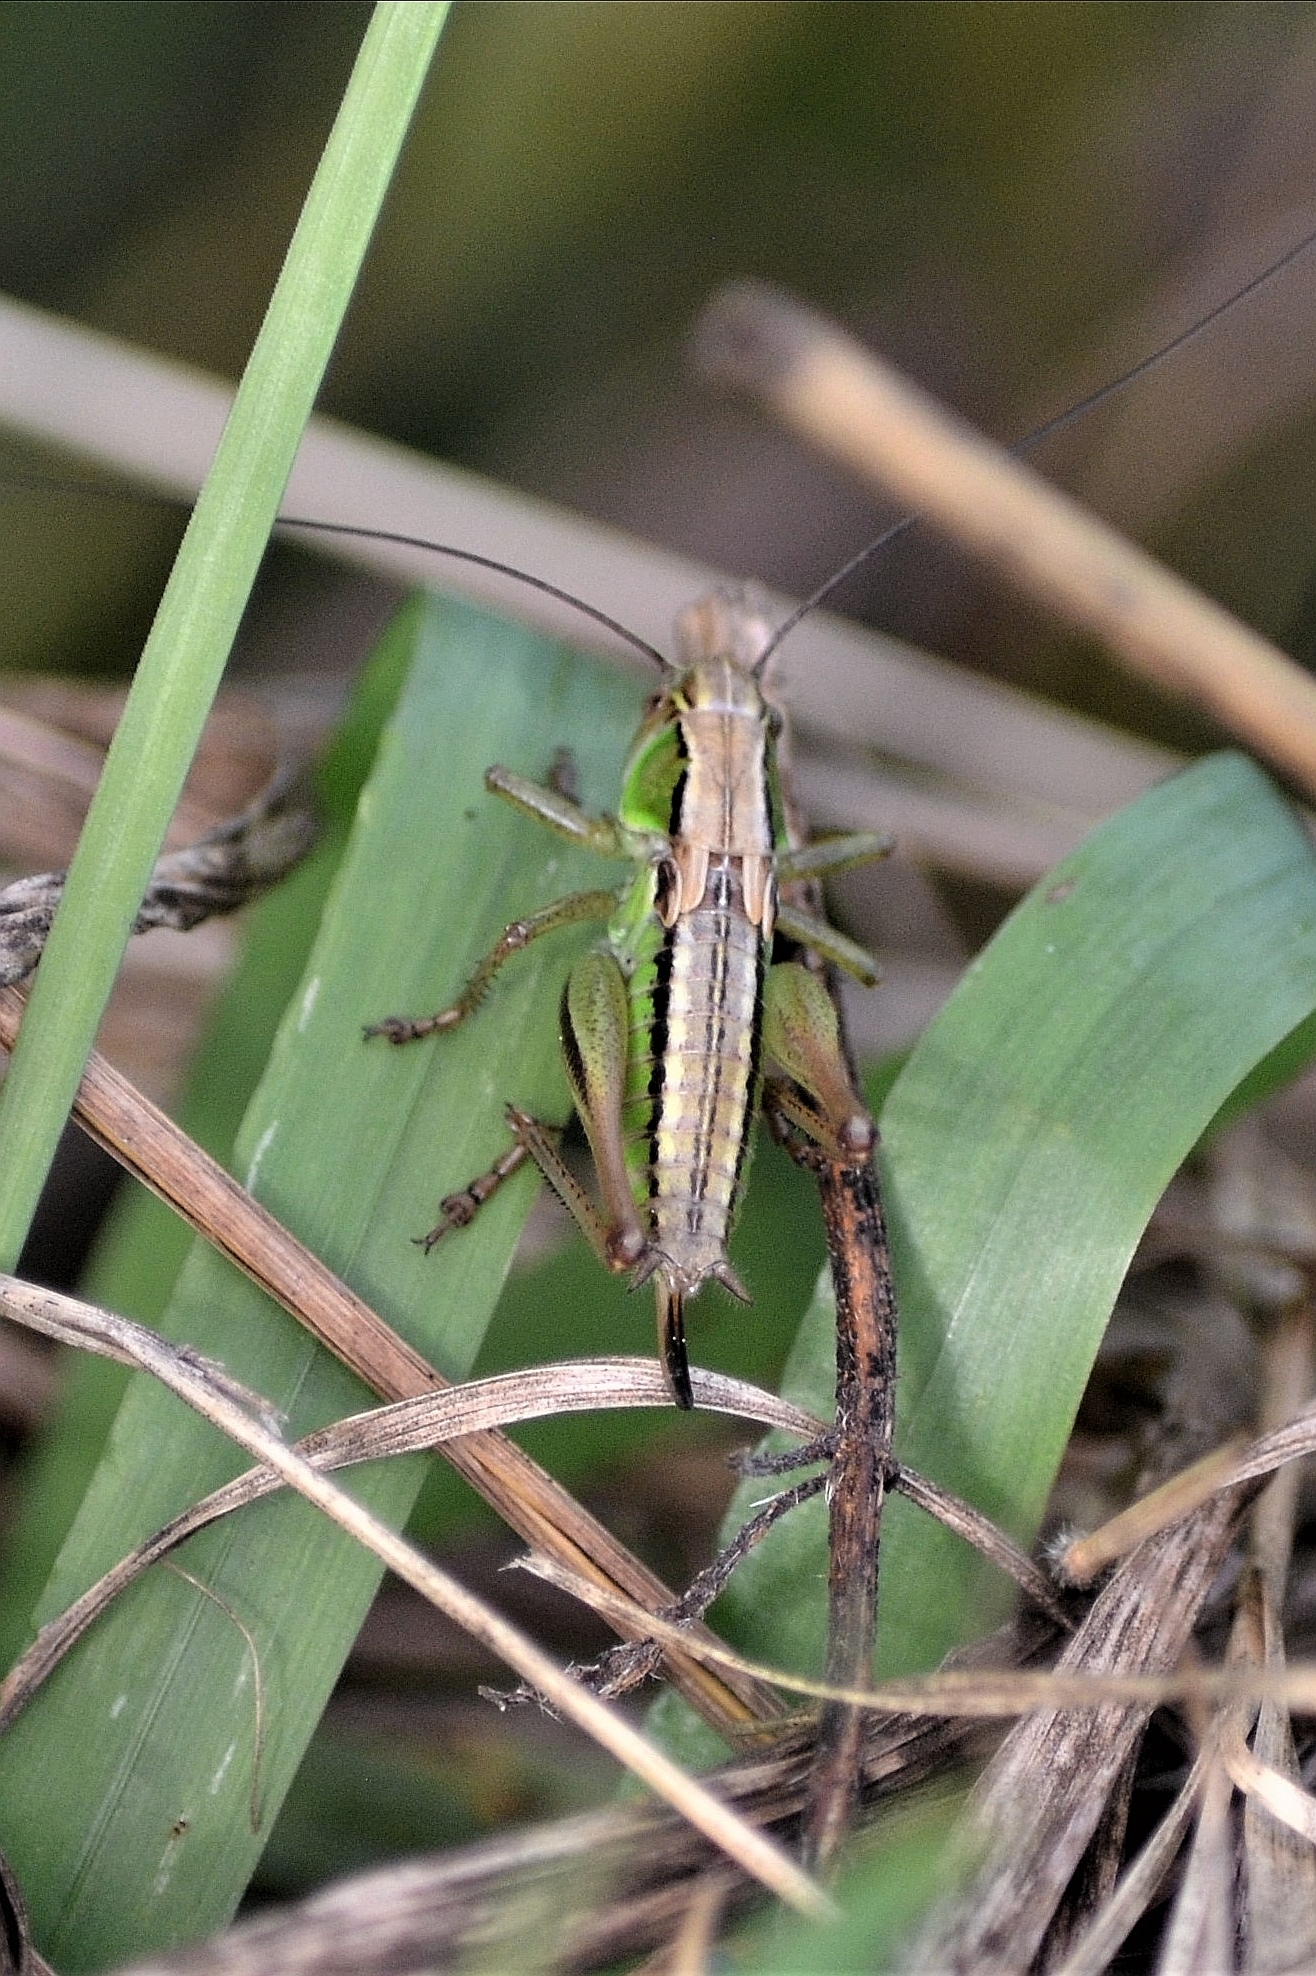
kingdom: Animalia
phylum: Arthropoda
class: Insecta
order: Orthoptera
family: Tettigoniidae
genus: Roeseliana
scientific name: Roeseliana roeselii
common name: Roesel's bush cricket
